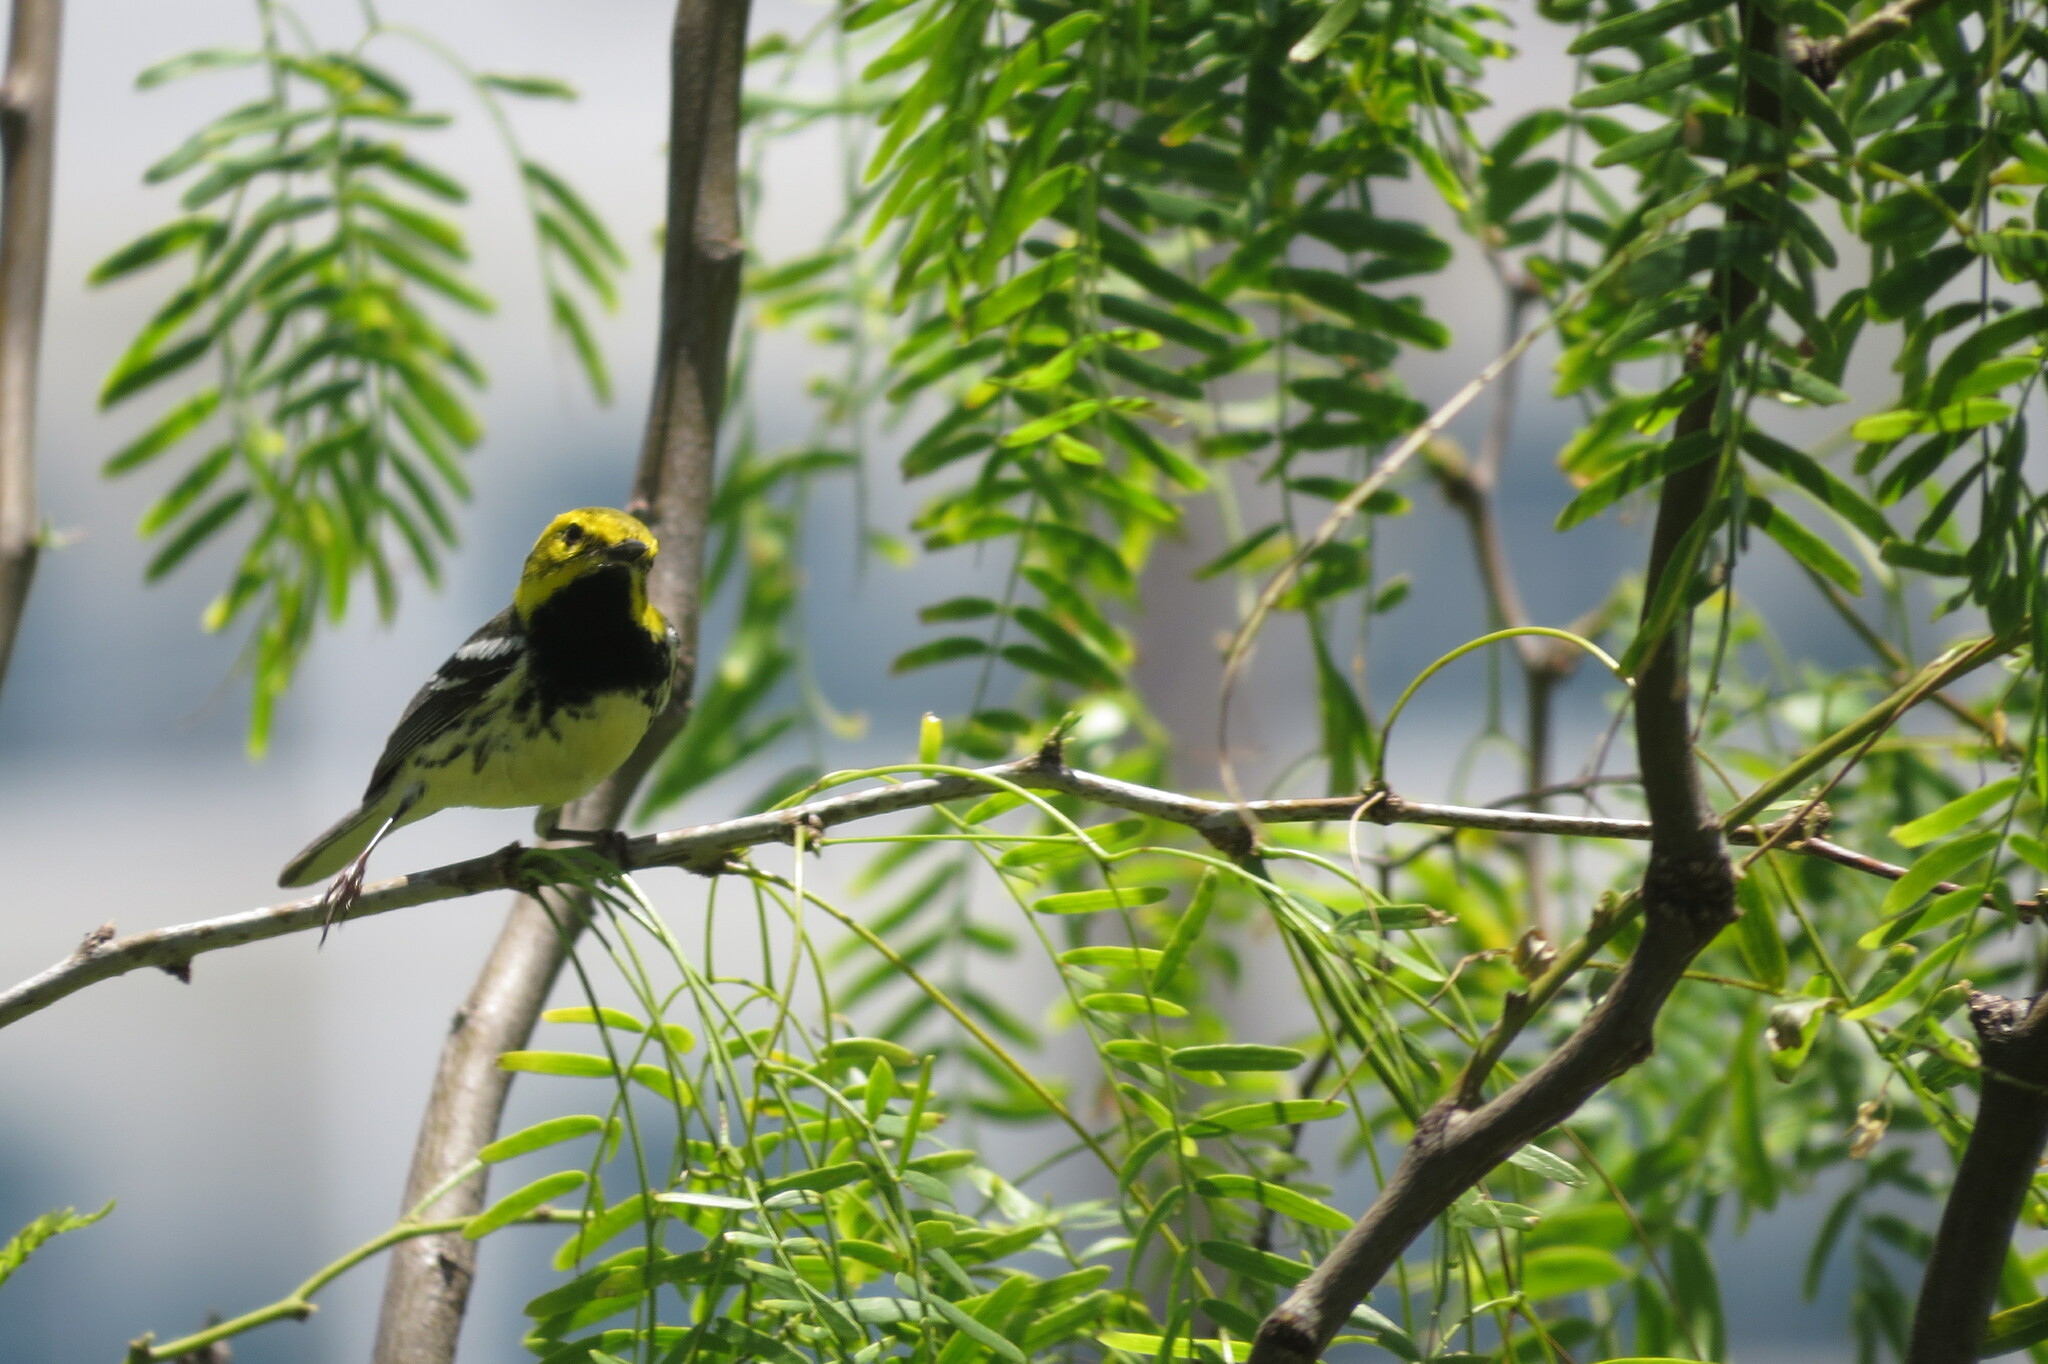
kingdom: Animalia
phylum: Chordata
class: Aves
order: Passeriformes
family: Parulidae
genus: Setophaga
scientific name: Setophaga virens
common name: Black-throated green warbler
